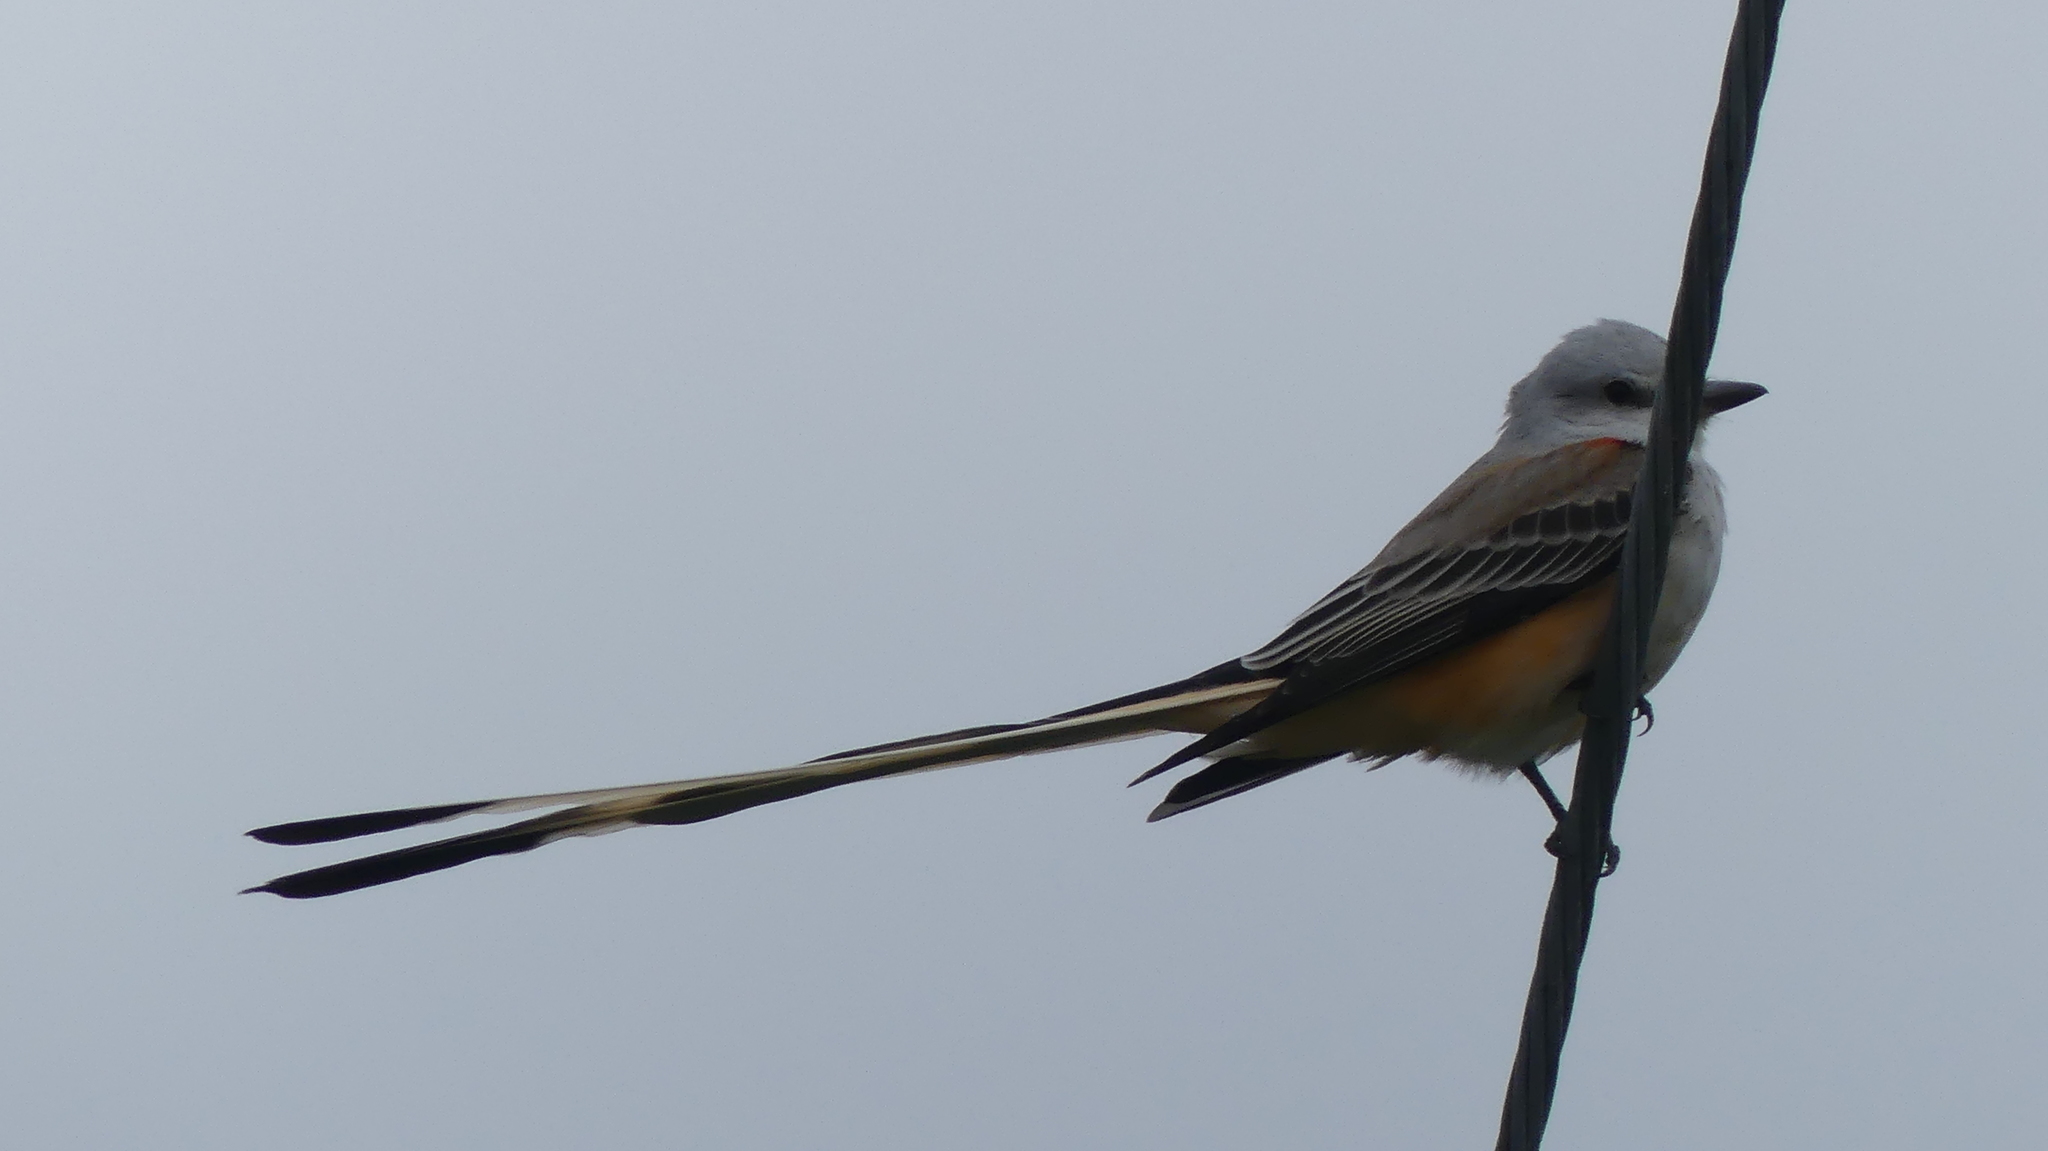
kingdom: Animalia
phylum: Chordata
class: Aves
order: Passeriformes
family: Tyrannidae
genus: Tyrannus
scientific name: Tyrannus forficatus
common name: Scissor-tailed flycatcher
